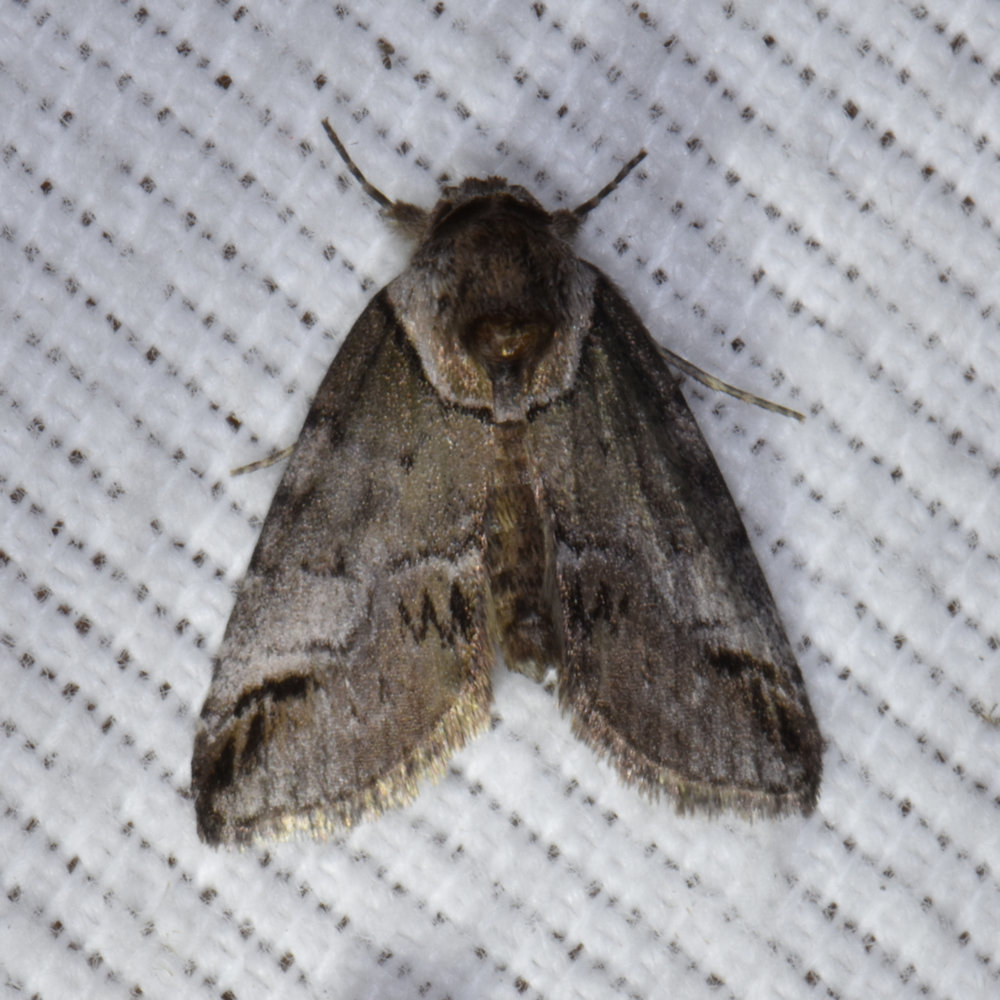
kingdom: Animalia
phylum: Arthropoda
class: Insecta
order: Lepidoptera
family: Nolidae
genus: Baileya
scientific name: Baileya australis
